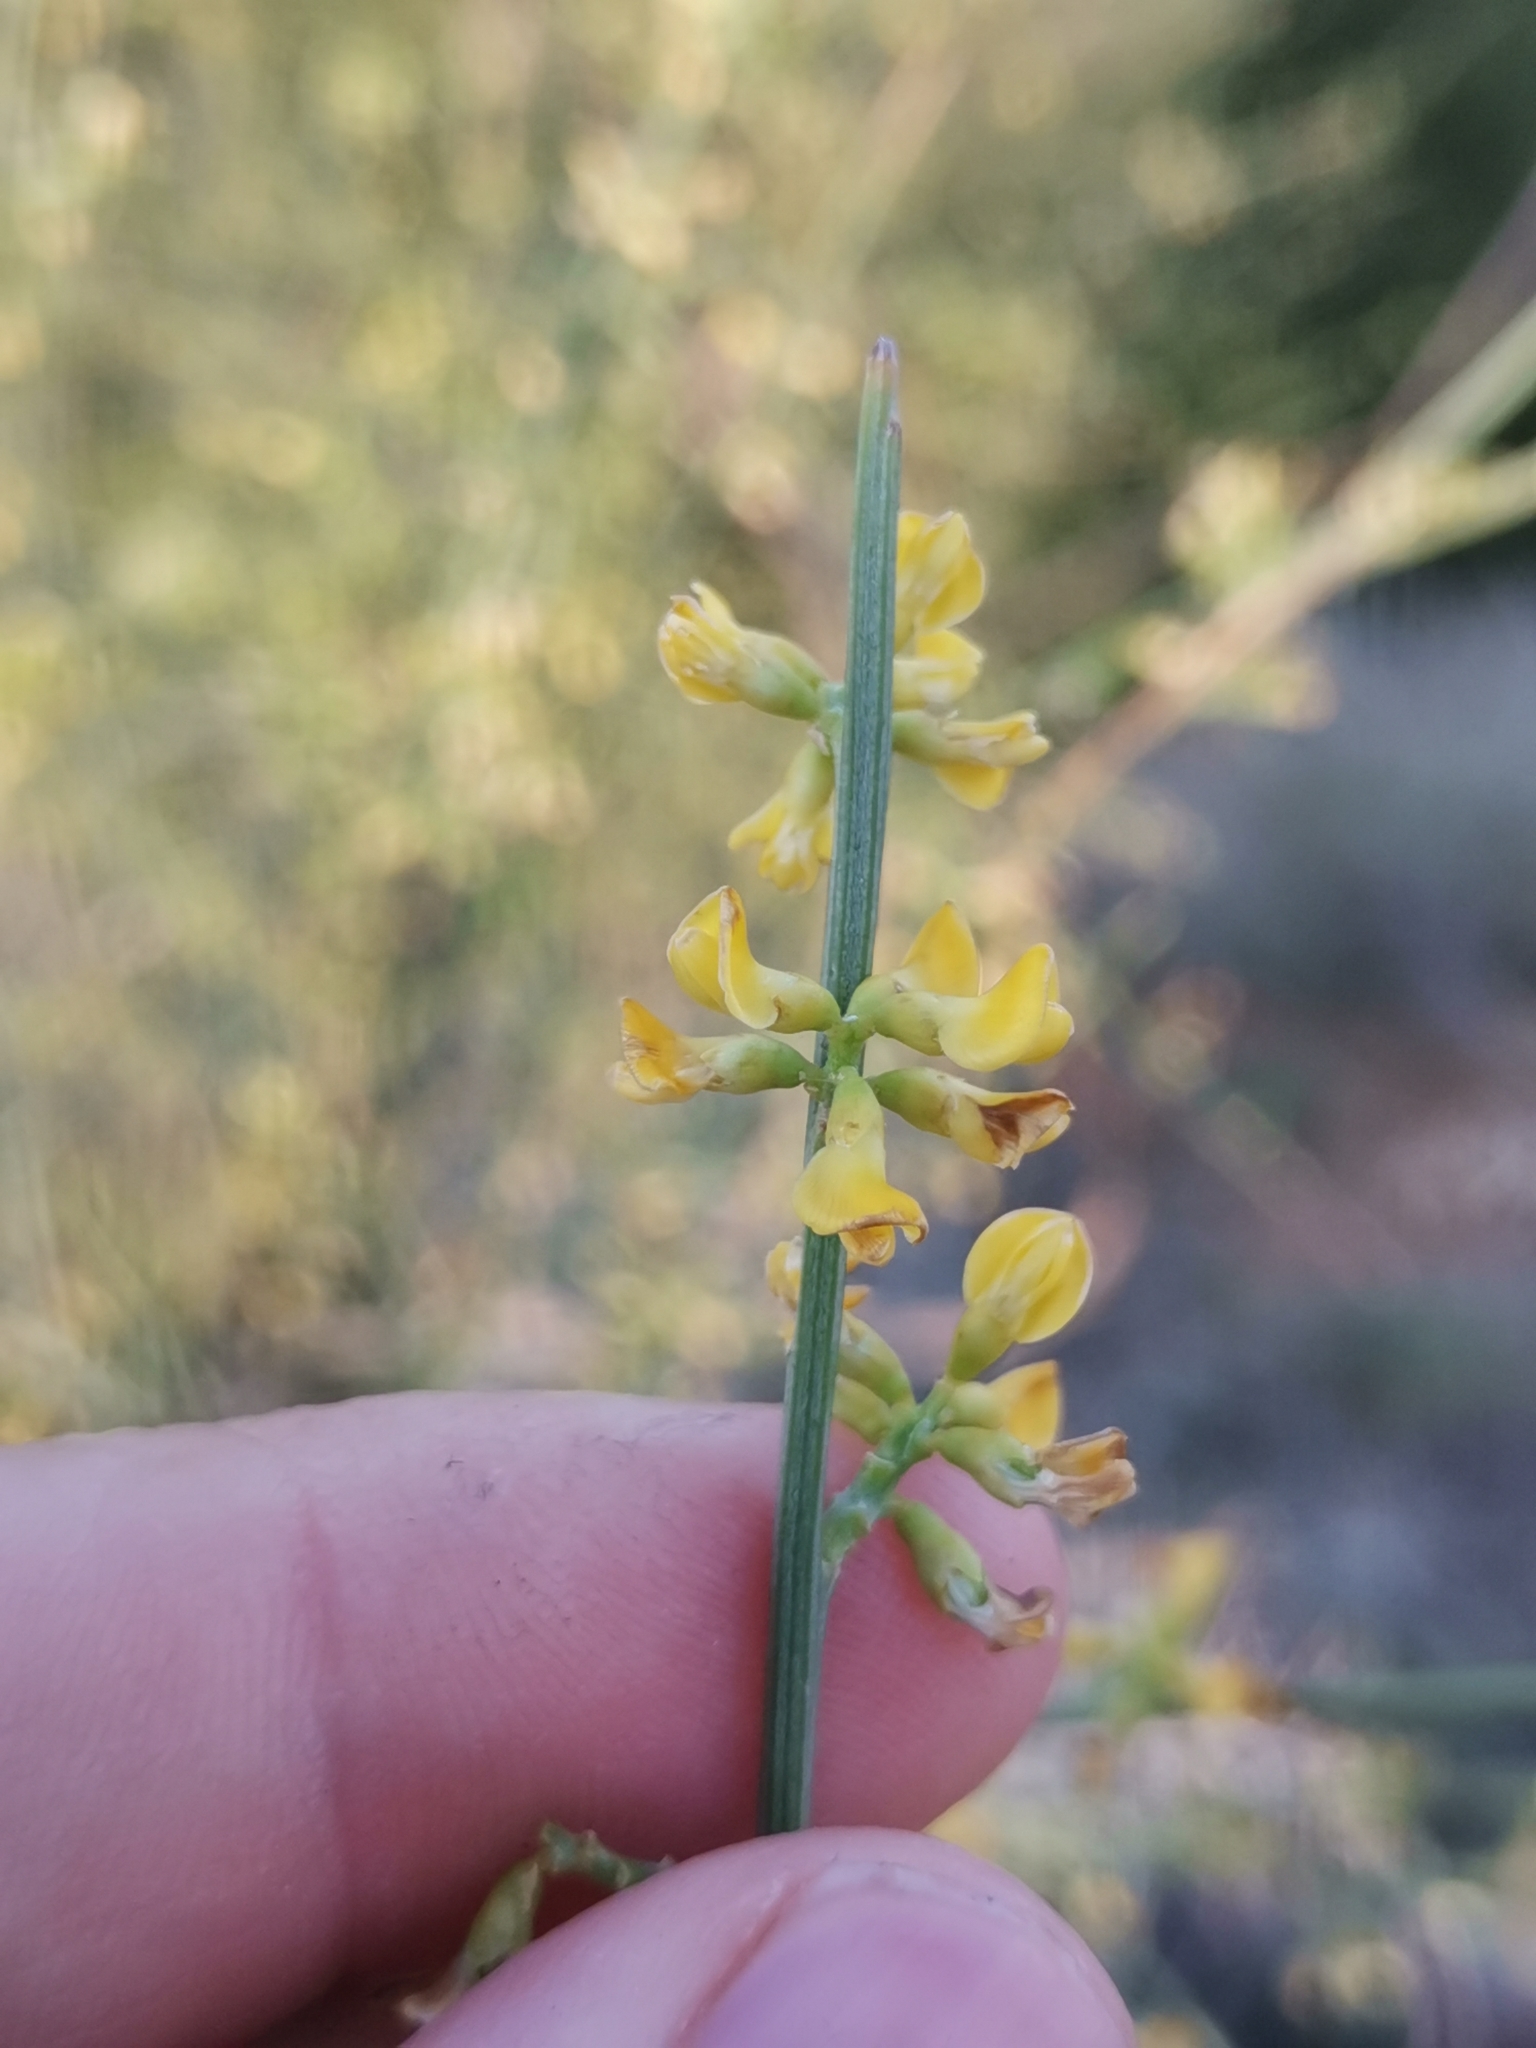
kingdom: Plantae
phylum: Tracheophyta
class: Magnoliopsida
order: Fabales
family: Fabaceae
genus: Retama
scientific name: Retama sphaerocarpa
